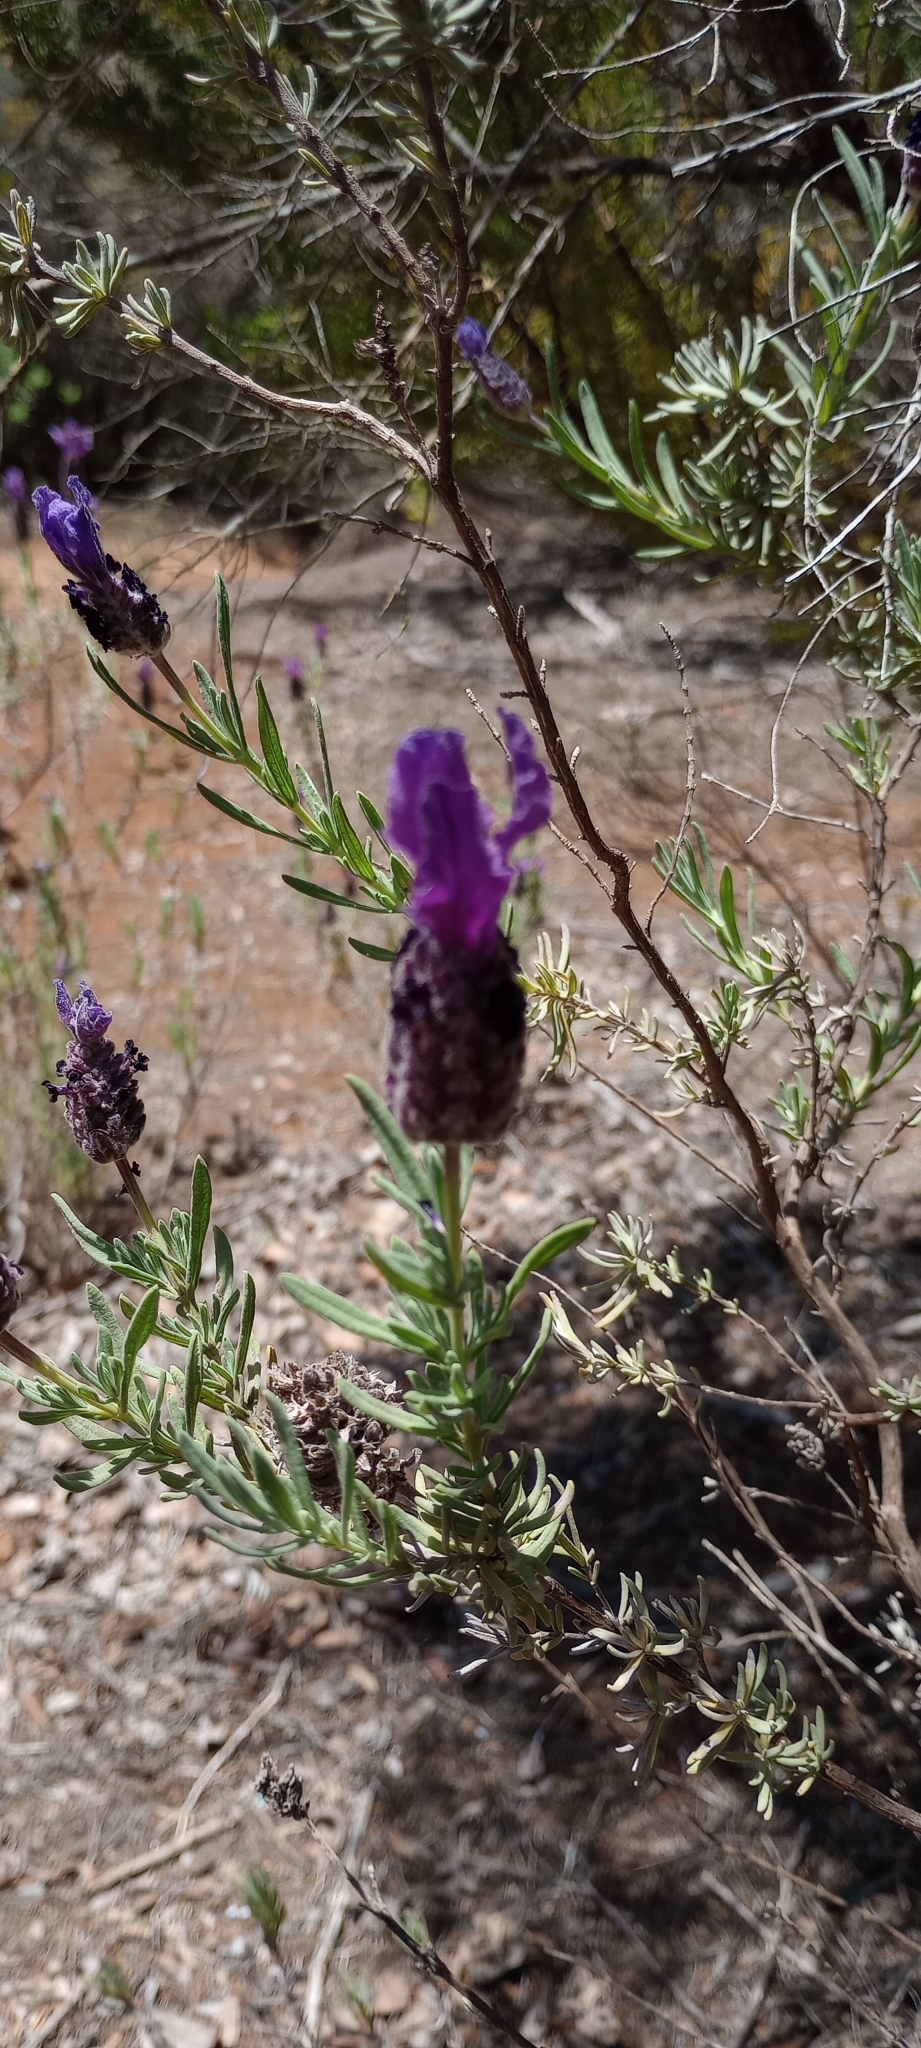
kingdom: Plantae
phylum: Tracheophyta
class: Magnoliopsida
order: Lamiales
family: Lamiaceae
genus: Lavandula
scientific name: Lavandula stoechas
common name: French lavender
